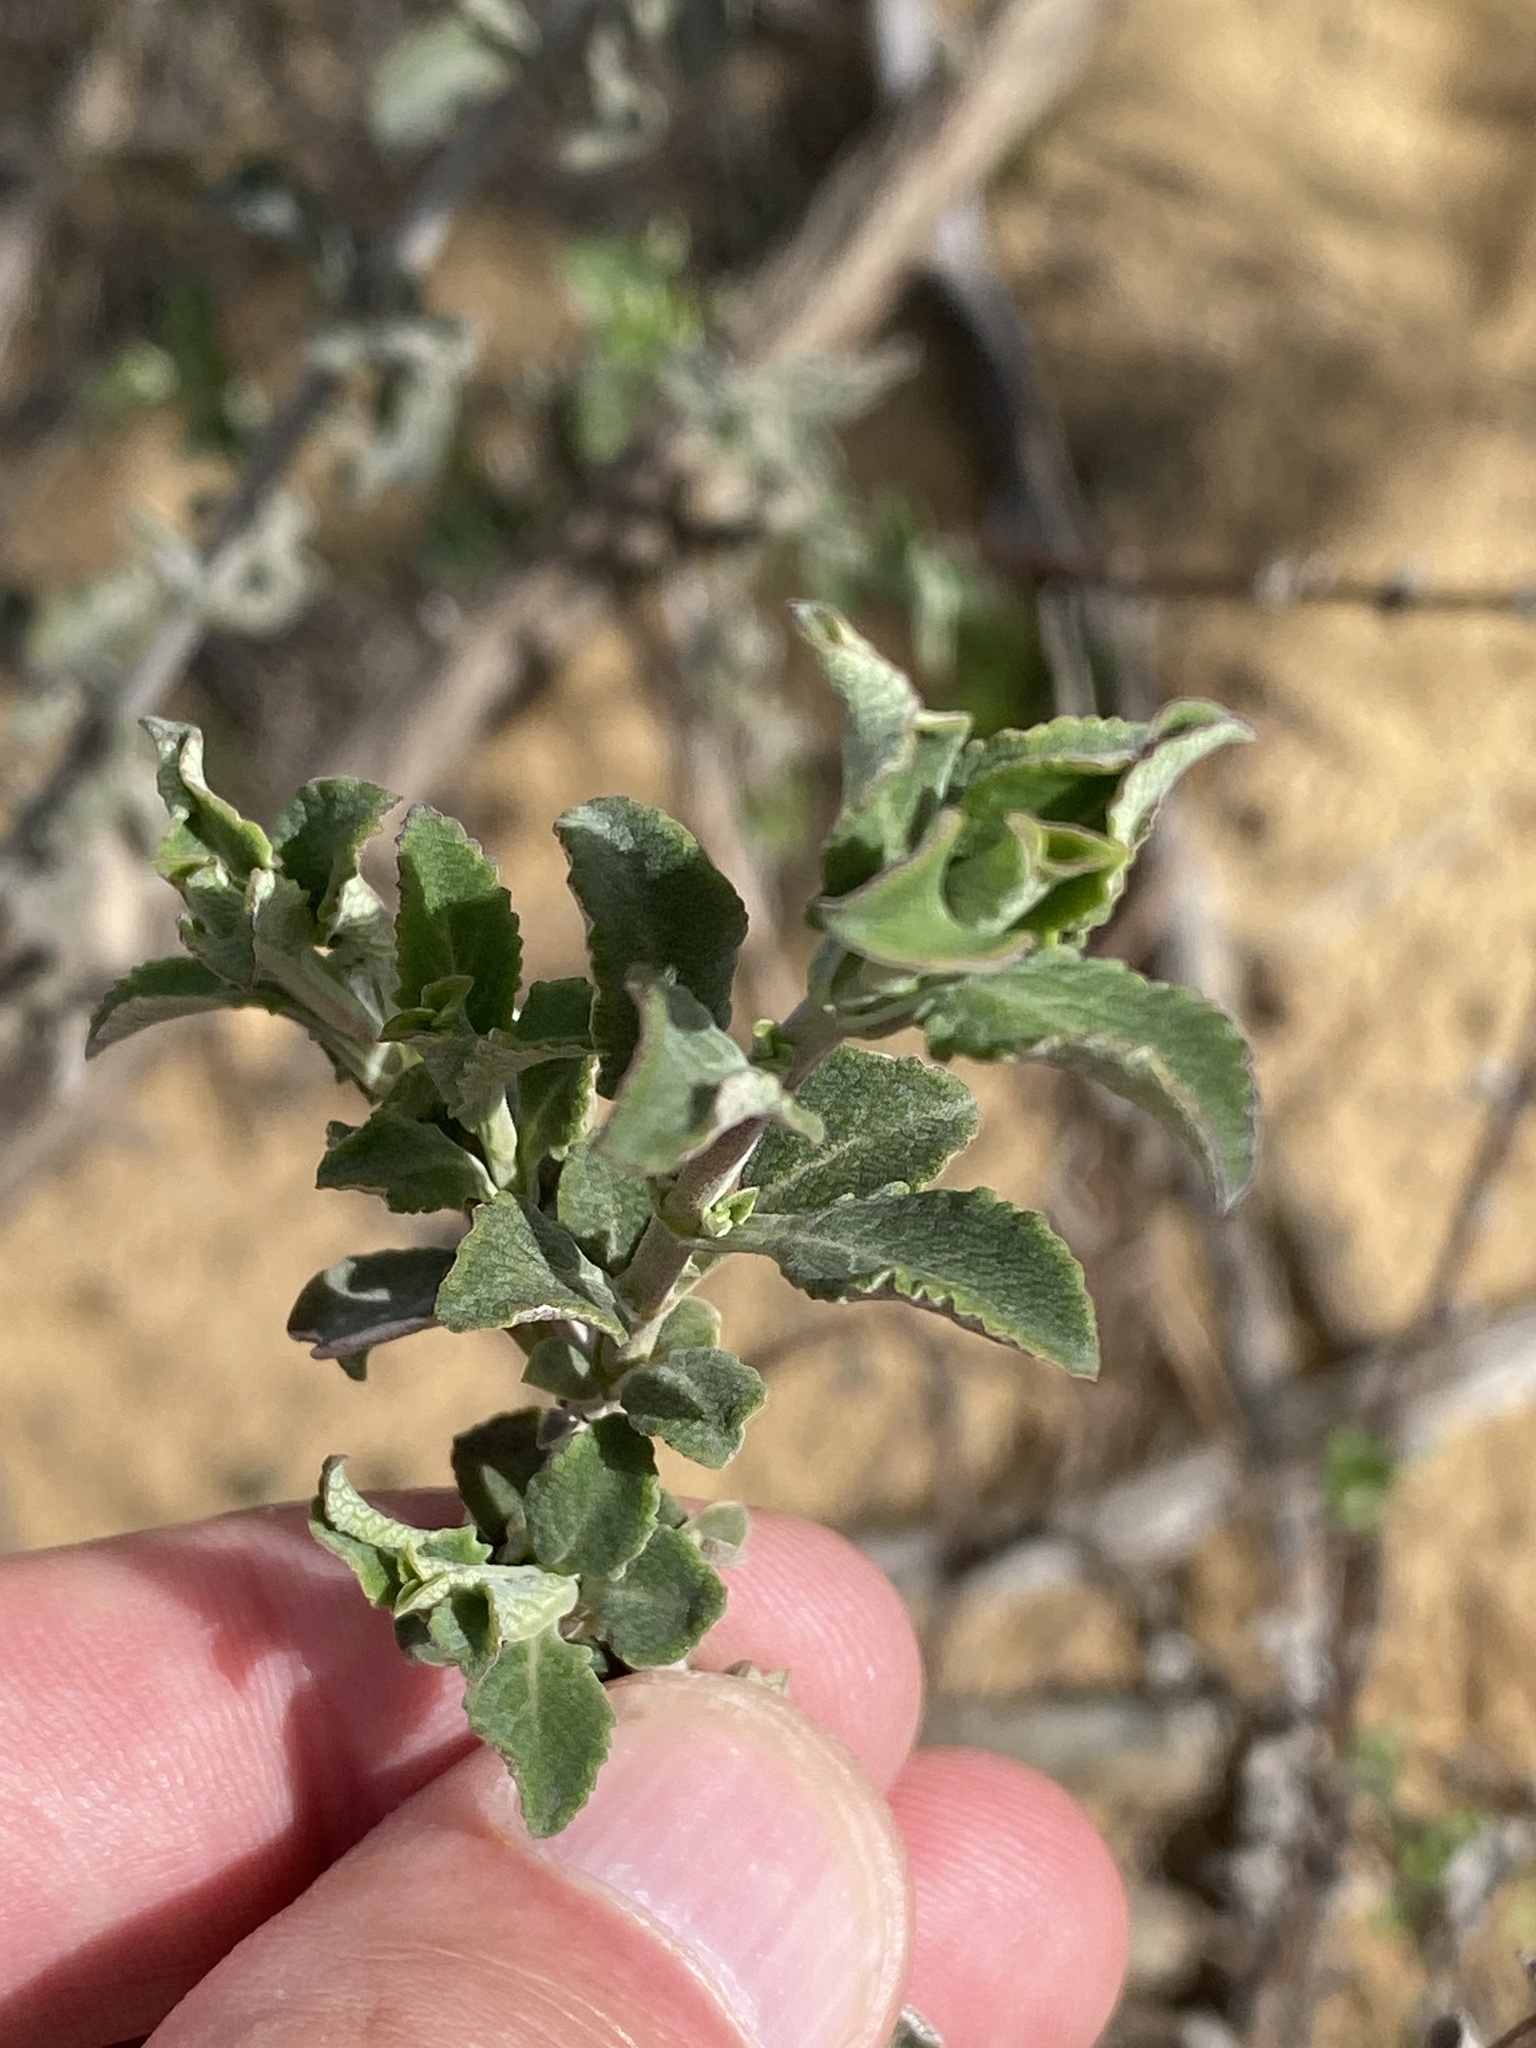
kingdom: Plantae
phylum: Tracheophyta
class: Magnoliopsida
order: Lamiales
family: Lamiaceae
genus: Salvia
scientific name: Salvia africana
